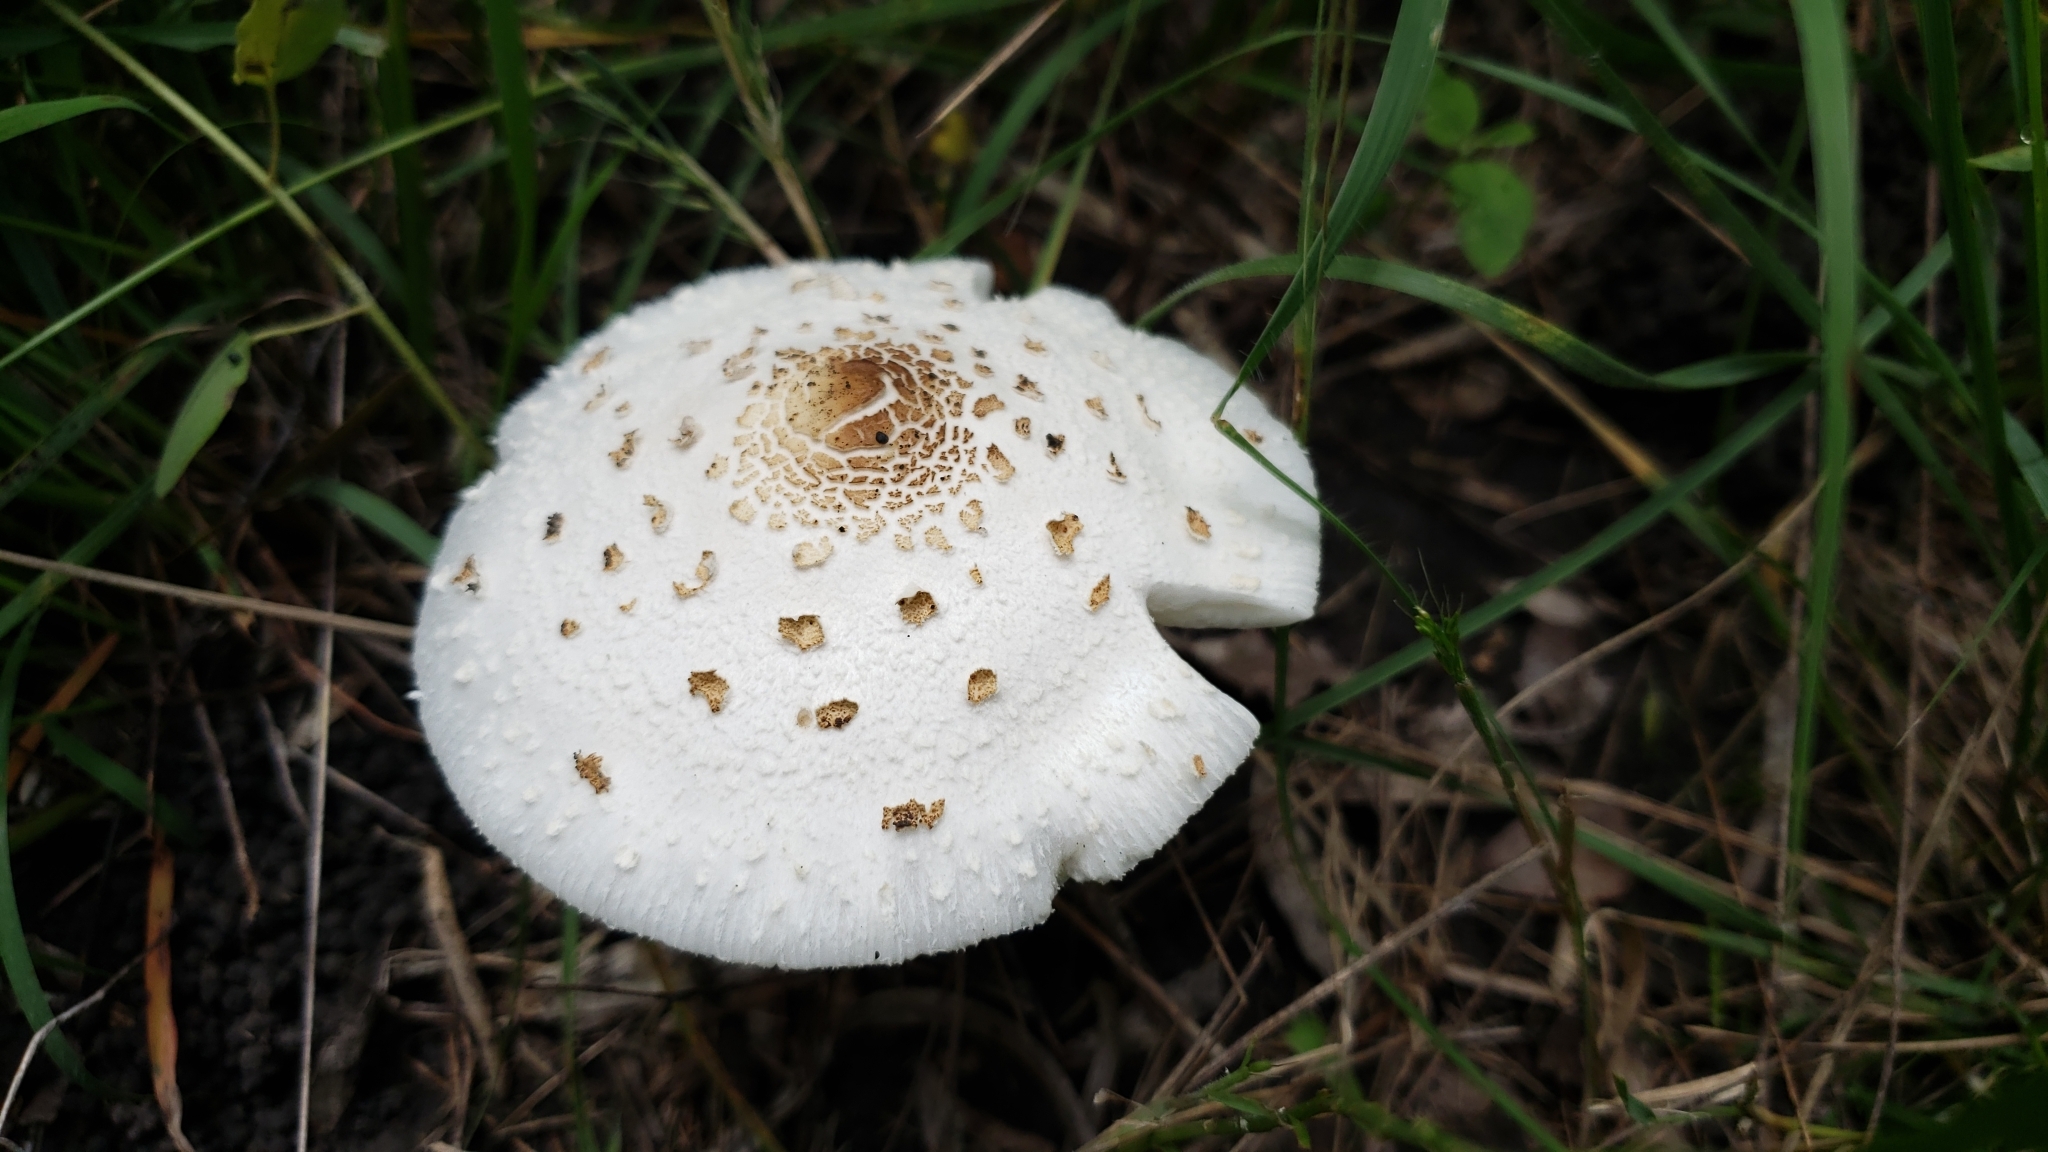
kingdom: Fungi
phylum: Basidiomycota
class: Agaricomycetes
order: Agaricales
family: Agaricaceae
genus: Chlorophyllum
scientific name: Chlorophyllum molybdites
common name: False parasol
